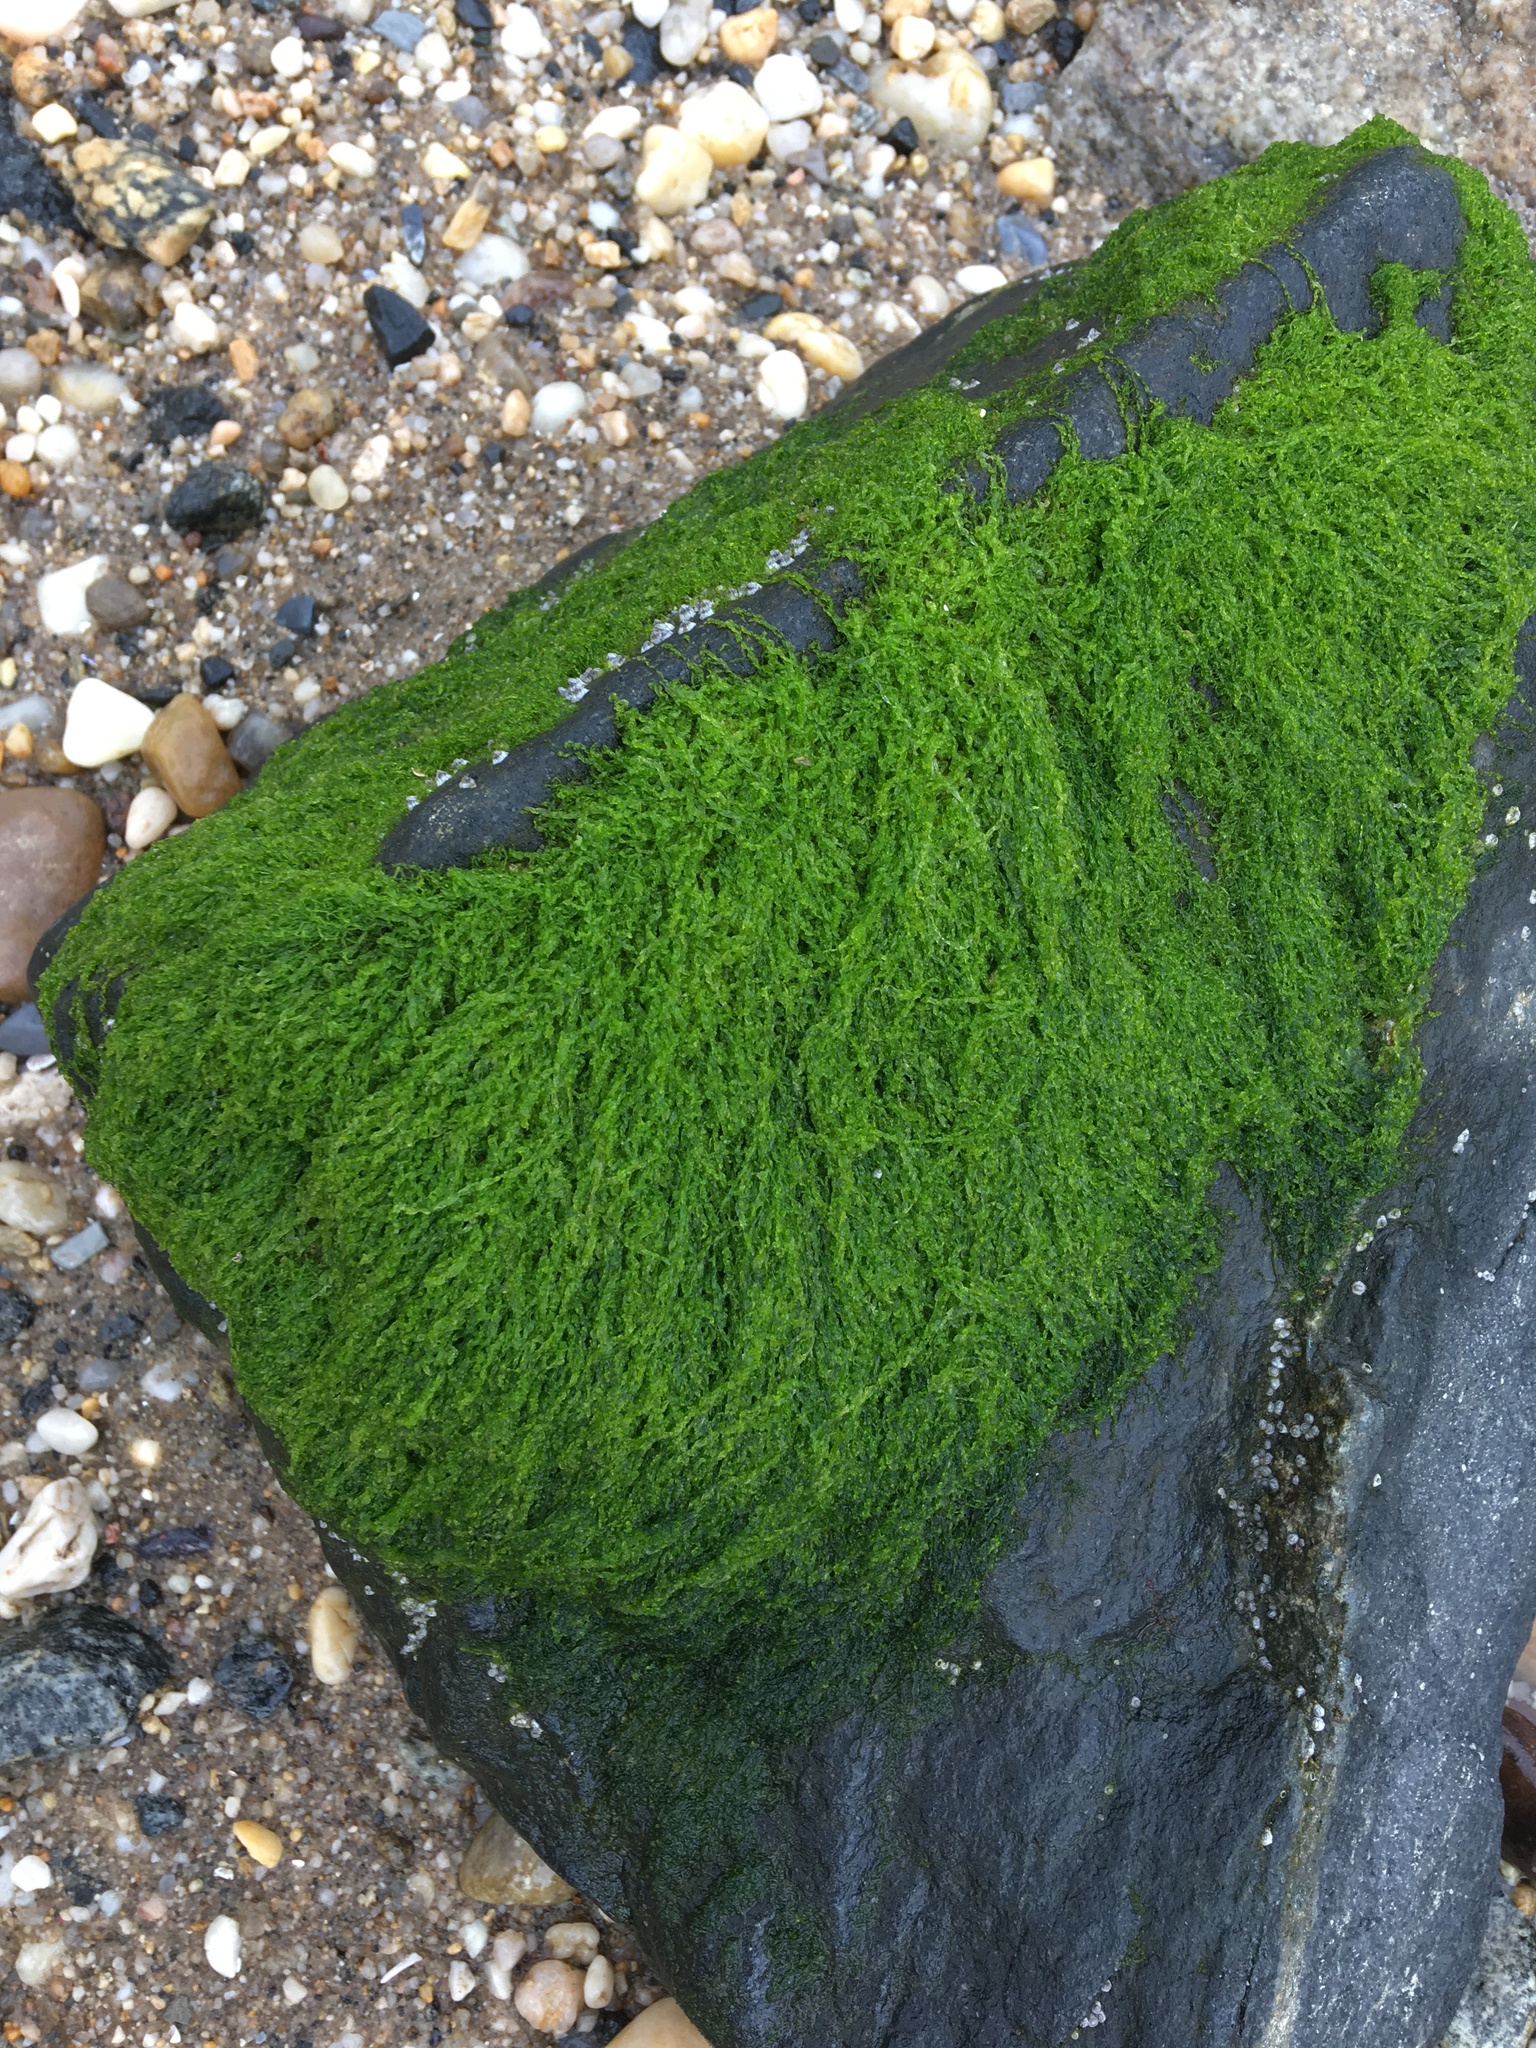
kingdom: Plantae
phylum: Chlorophyta
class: Ulvophyceae
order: Ulvales
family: Ulvaceae
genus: Ulva
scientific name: Ulva intestinalis
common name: Gut weed
